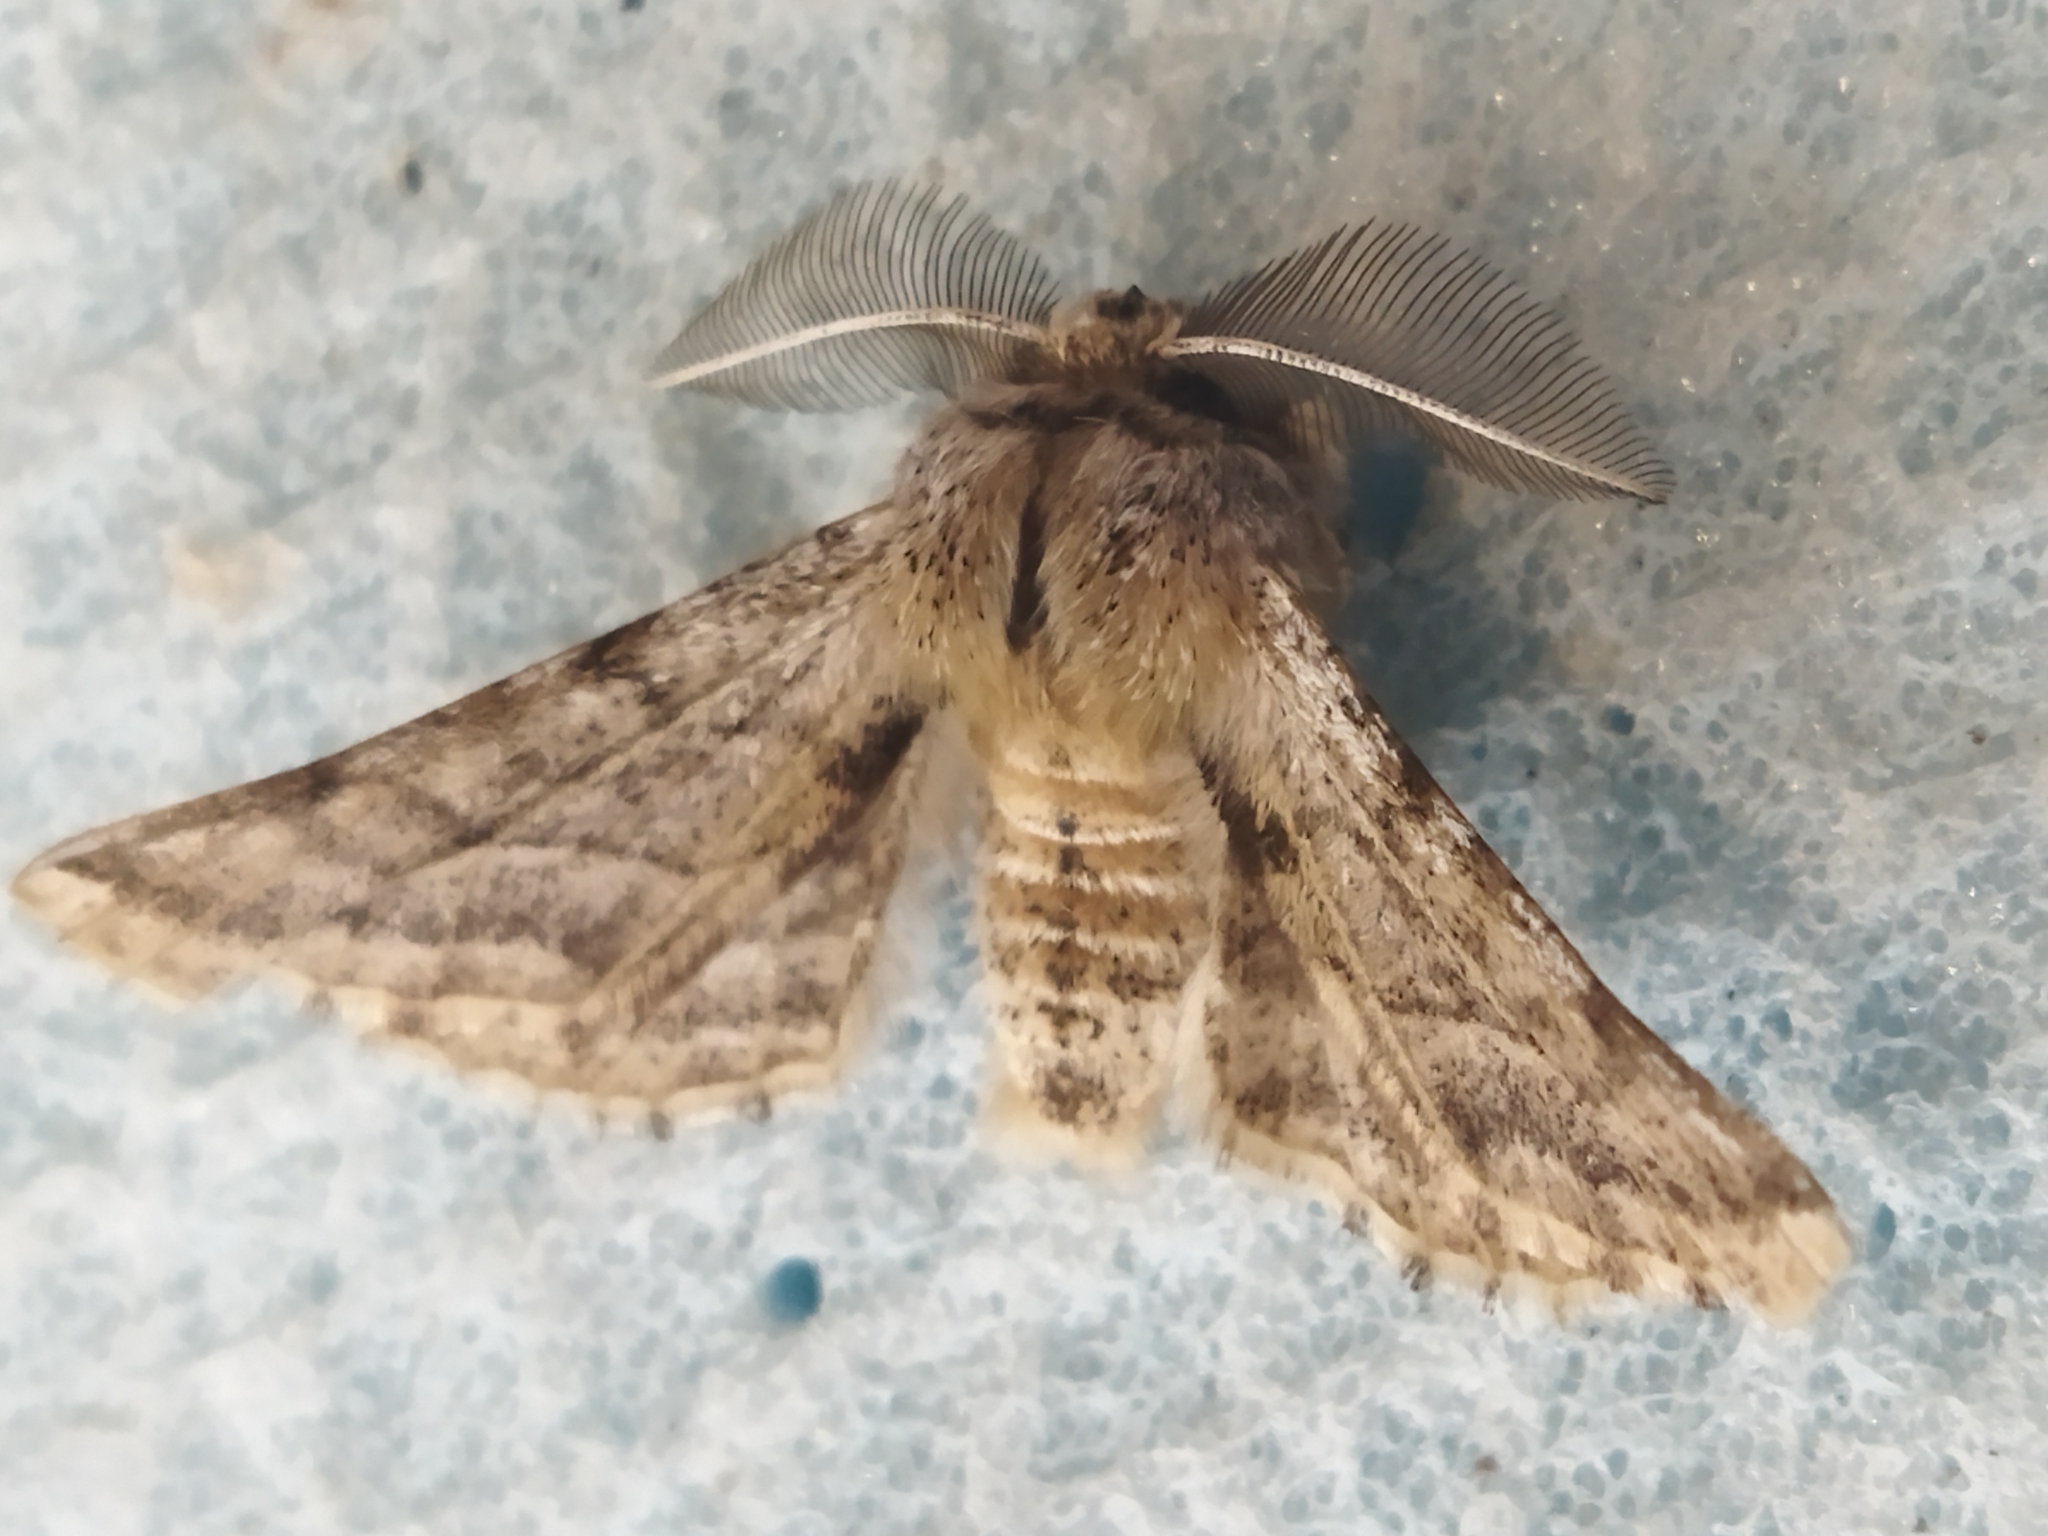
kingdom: Animalia
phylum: Arthropoda
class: Insecta
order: Lepidoptera
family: Geometridae
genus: Apochima
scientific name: Apochima flabellaria
